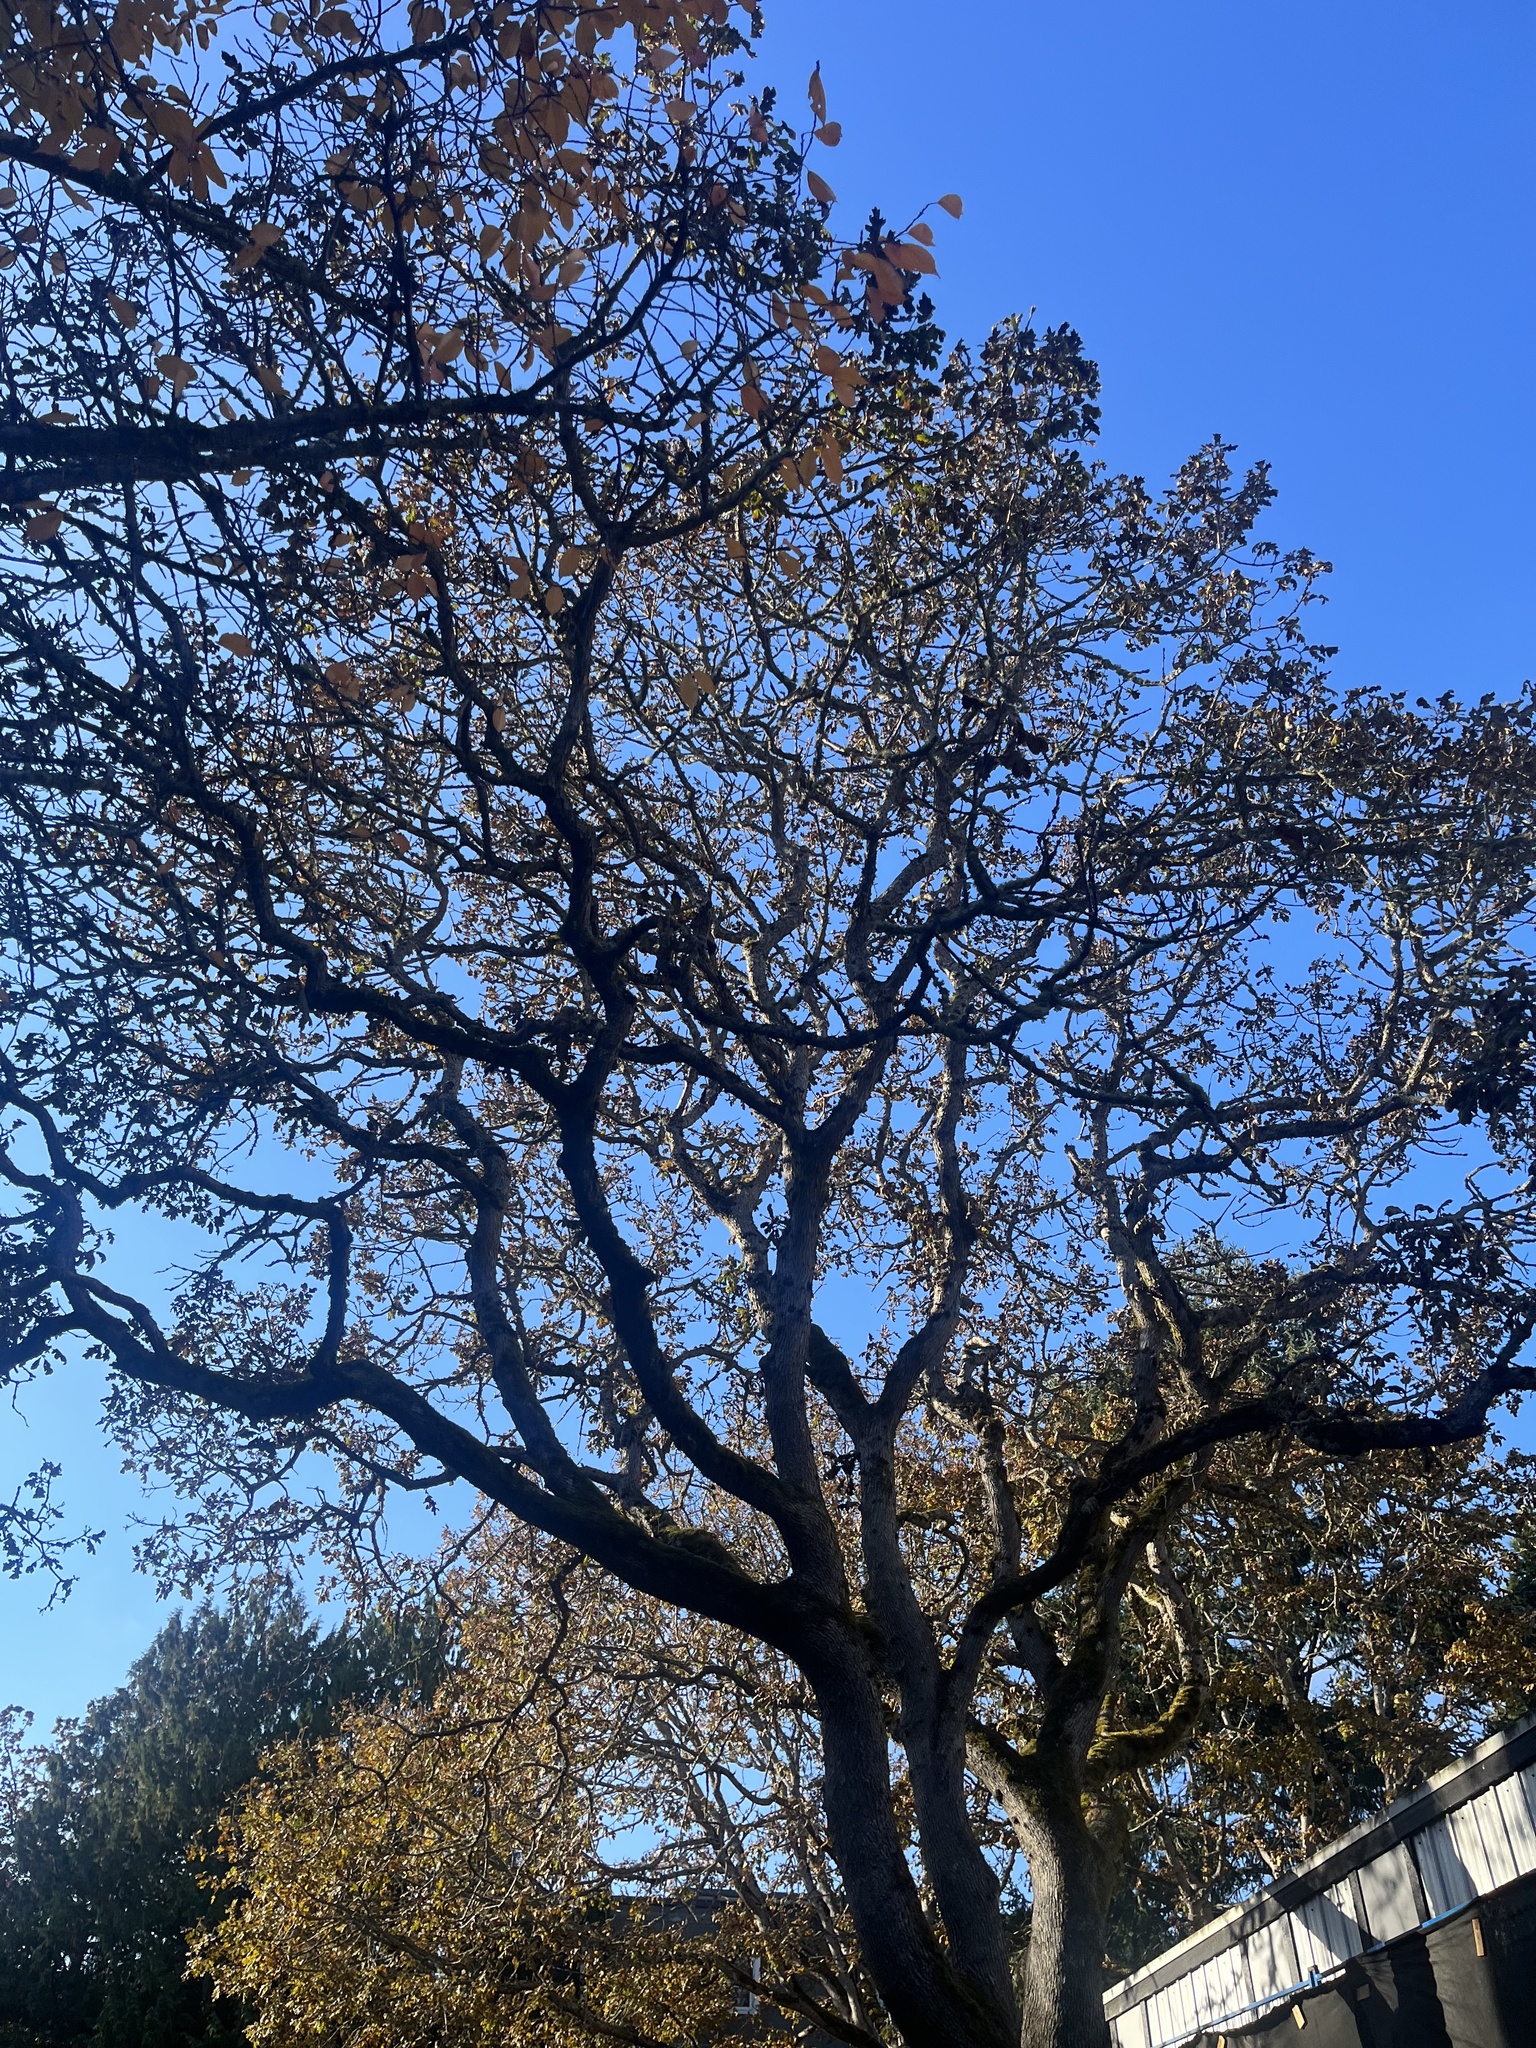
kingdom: Plantae
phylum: Tracheophyta
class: Magnoliopsida
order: Fagales
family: Fagaceae
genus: Quercus
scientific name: Quercus garryana
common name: Garry oak
